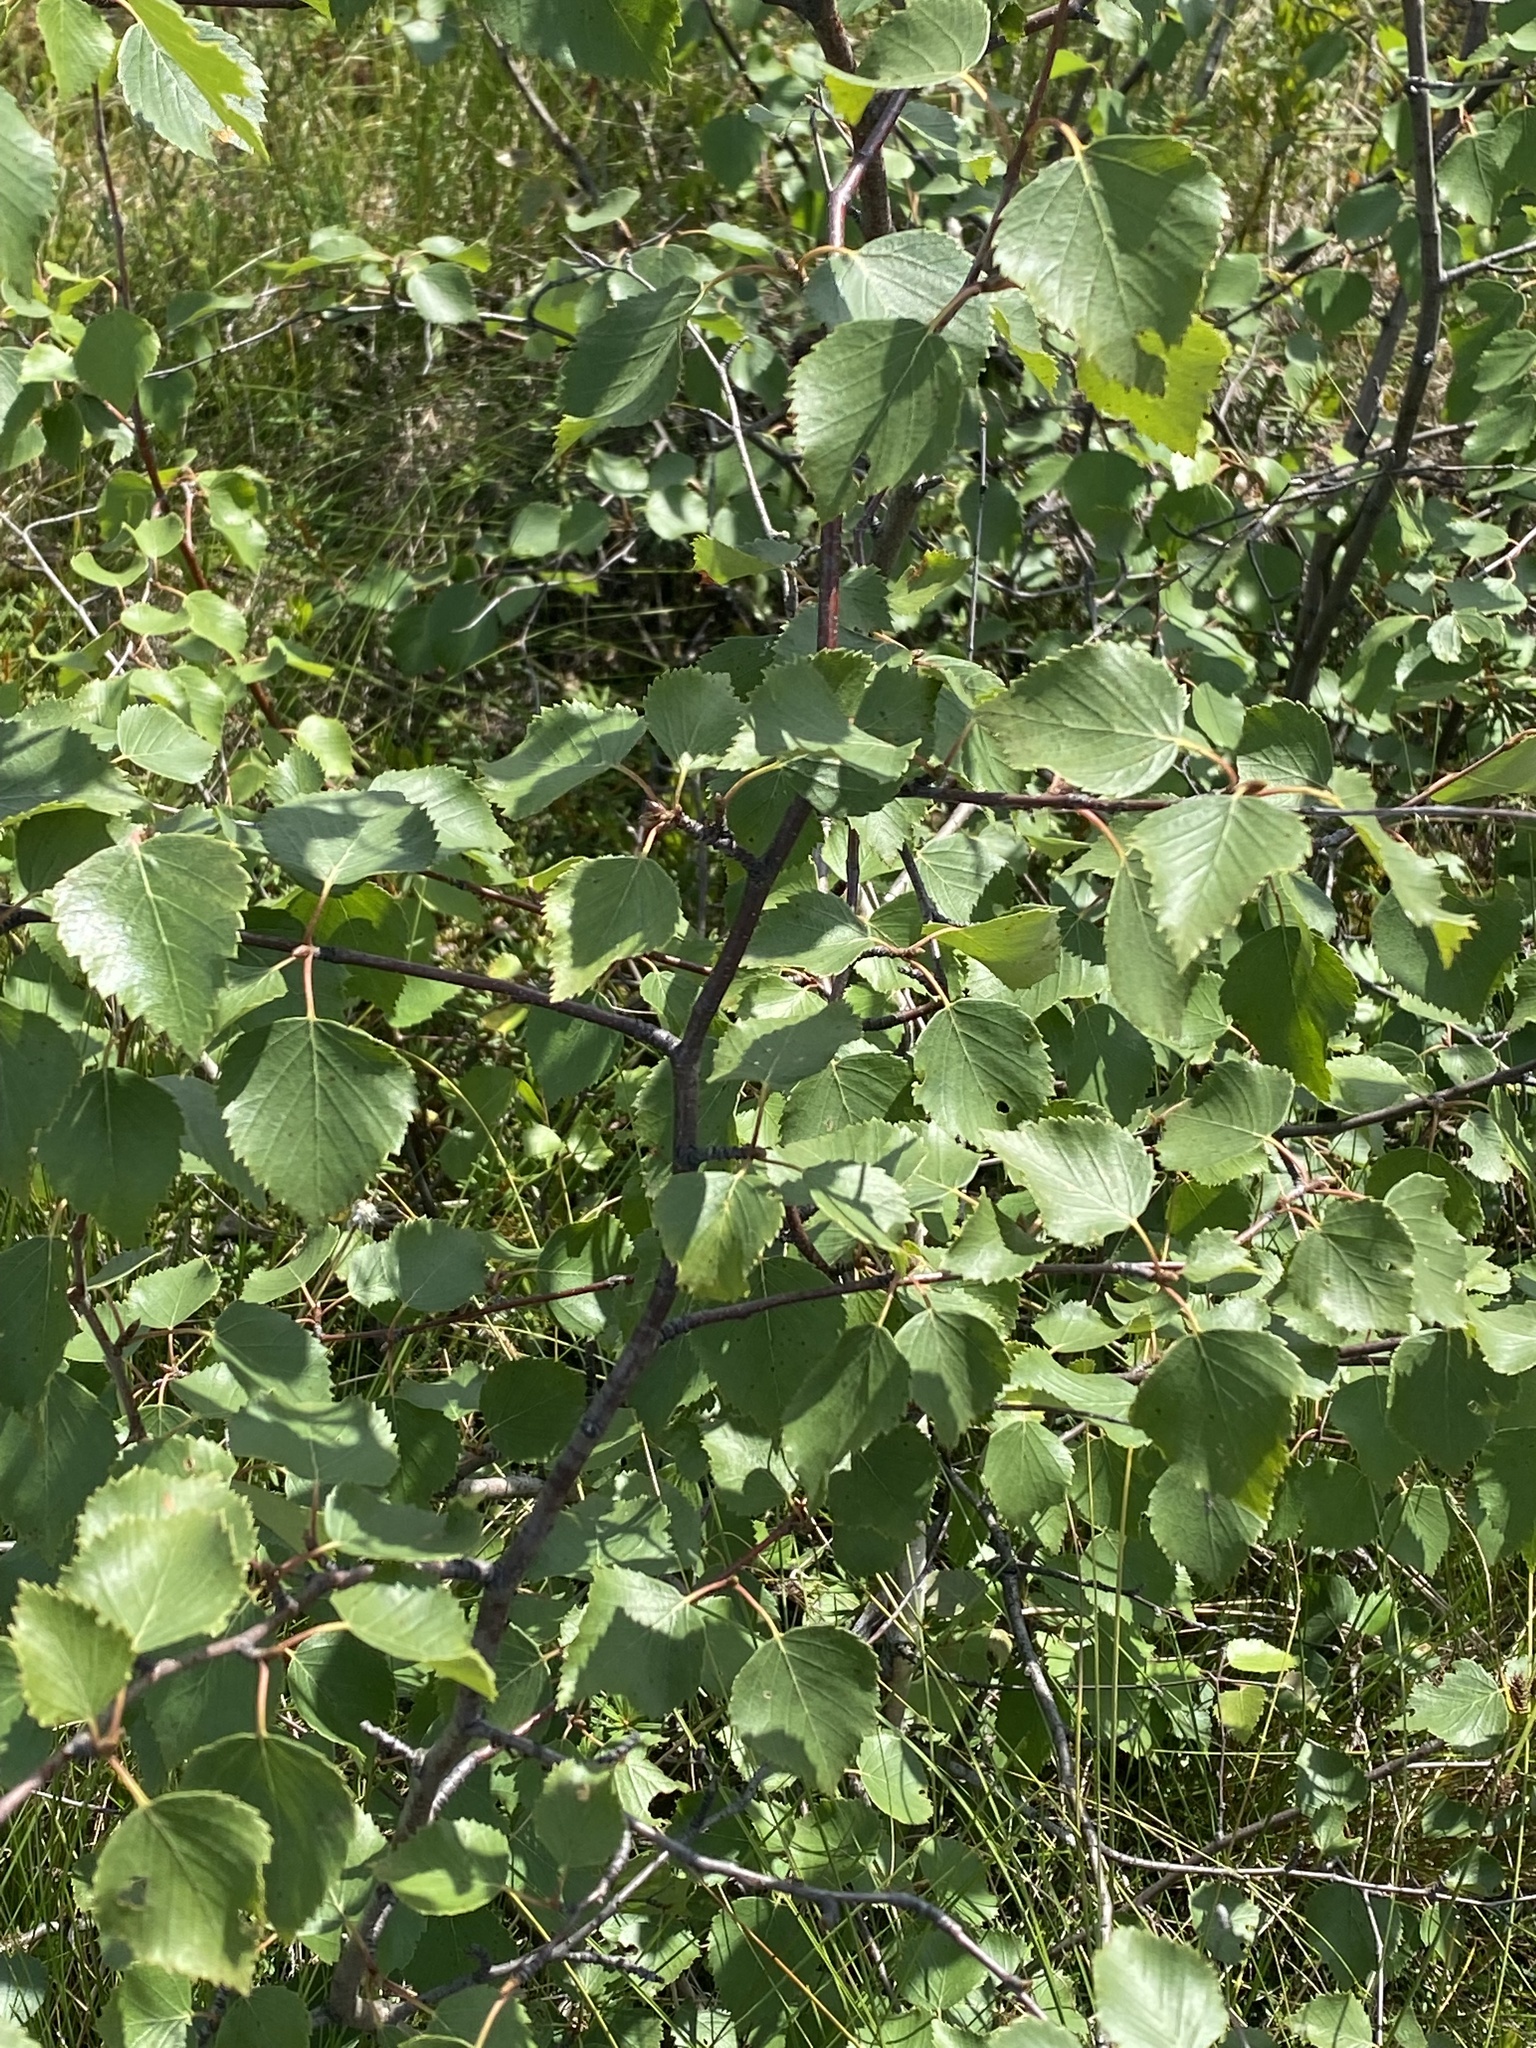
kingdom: Plantae
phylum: Tracheophyta
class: Magnoliopsida
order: Fagales
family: Betulaceae
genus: Betula
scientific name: Betula pubescens
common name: Downy birch
